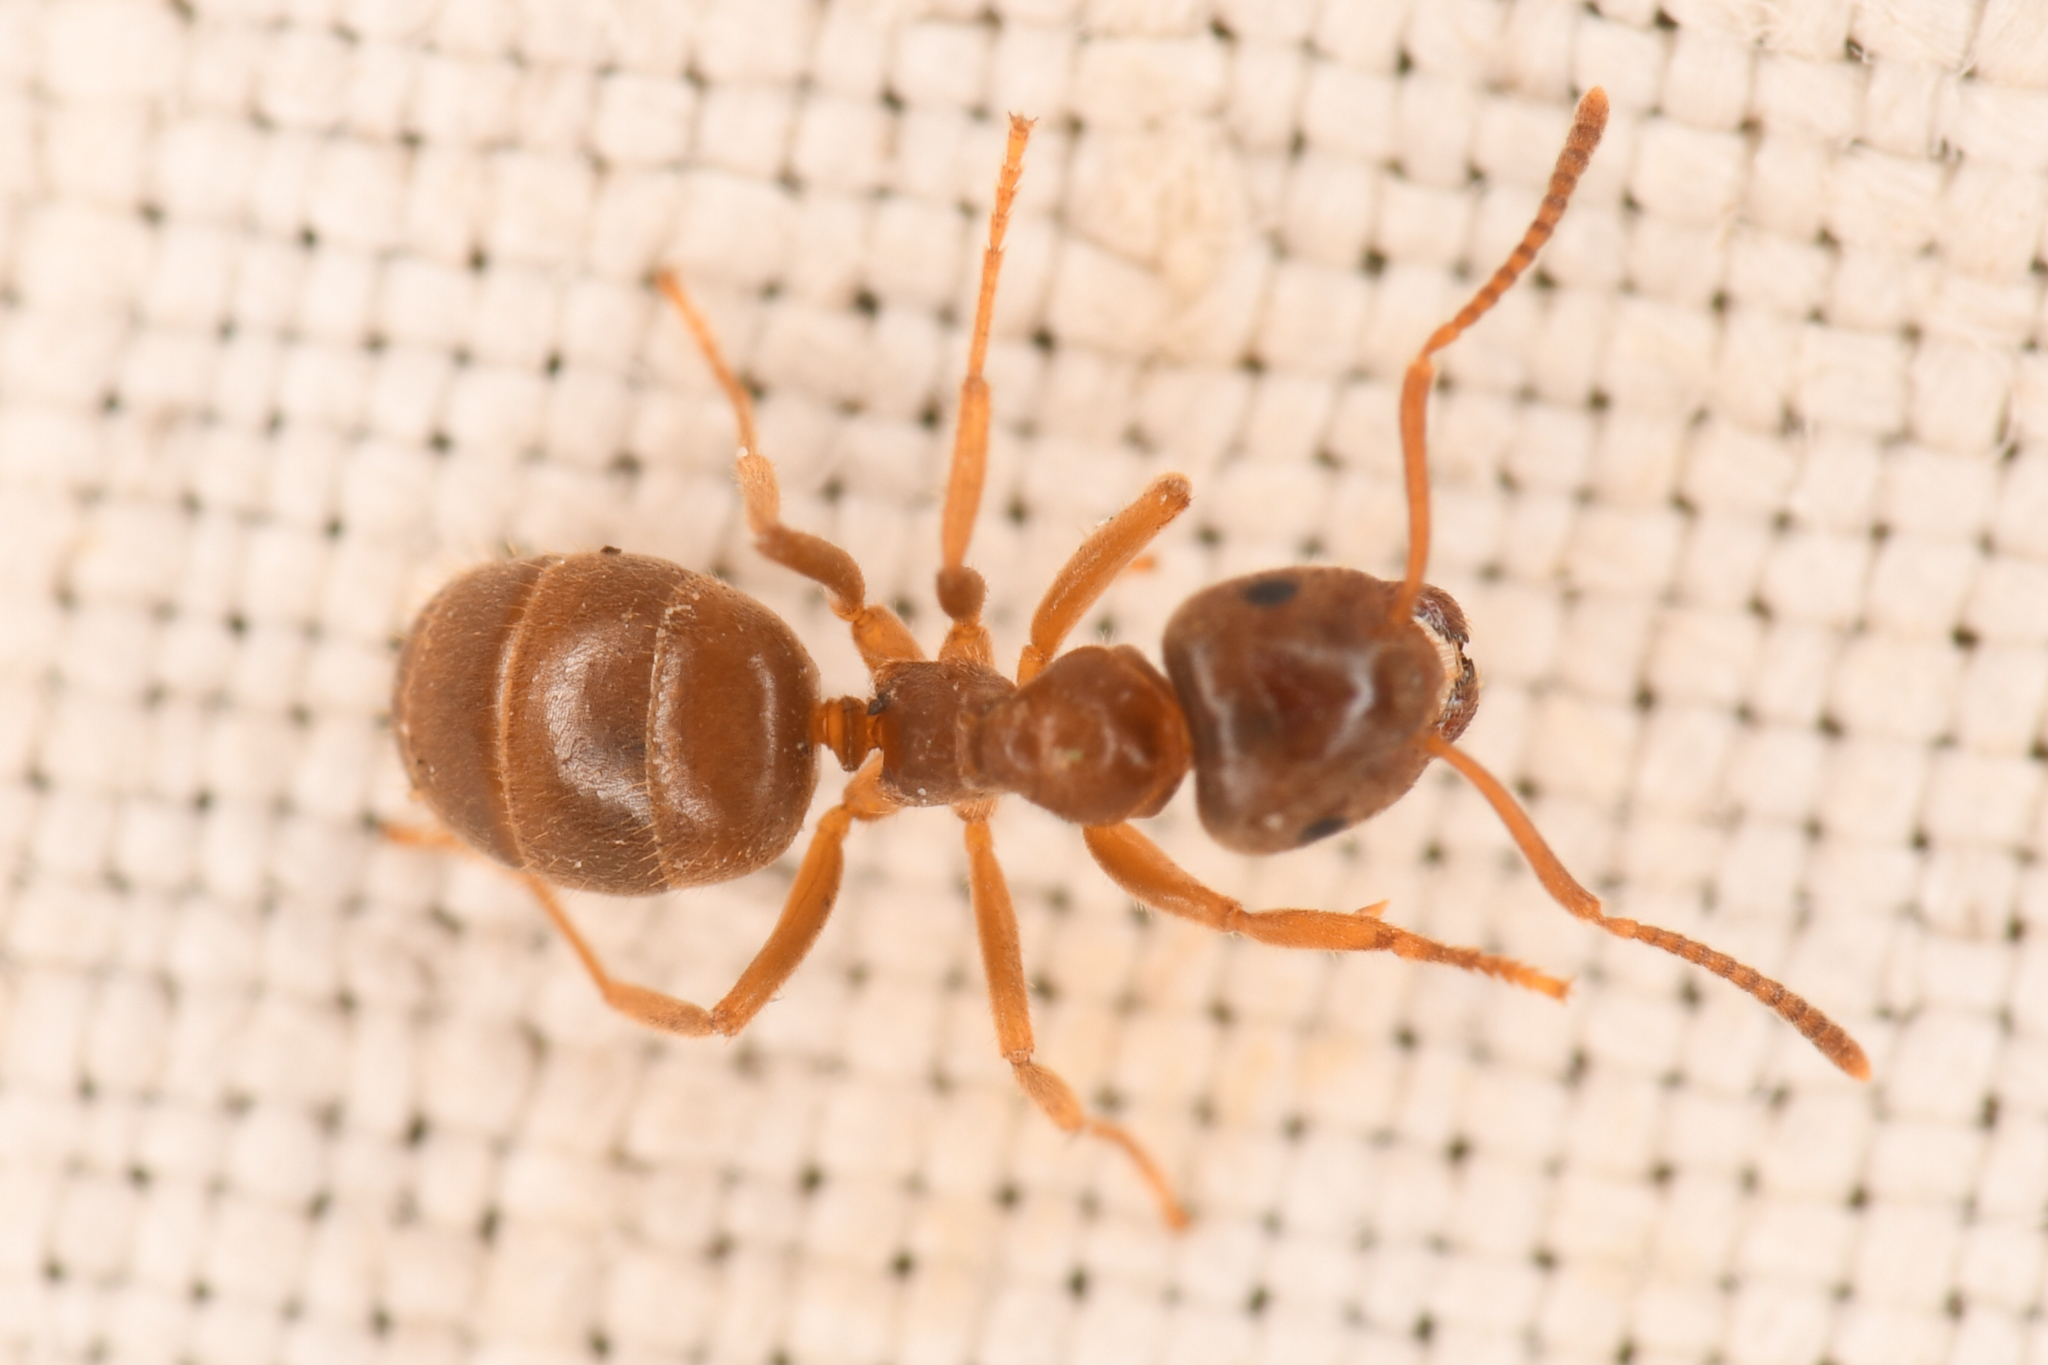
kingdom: Animalia
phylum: Arthropoda
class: Insecta
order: Hymenoptera
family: Formicidae
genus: Lasius
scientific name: Lasius pallitarsis
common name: Subterranean aphid-tending ant
